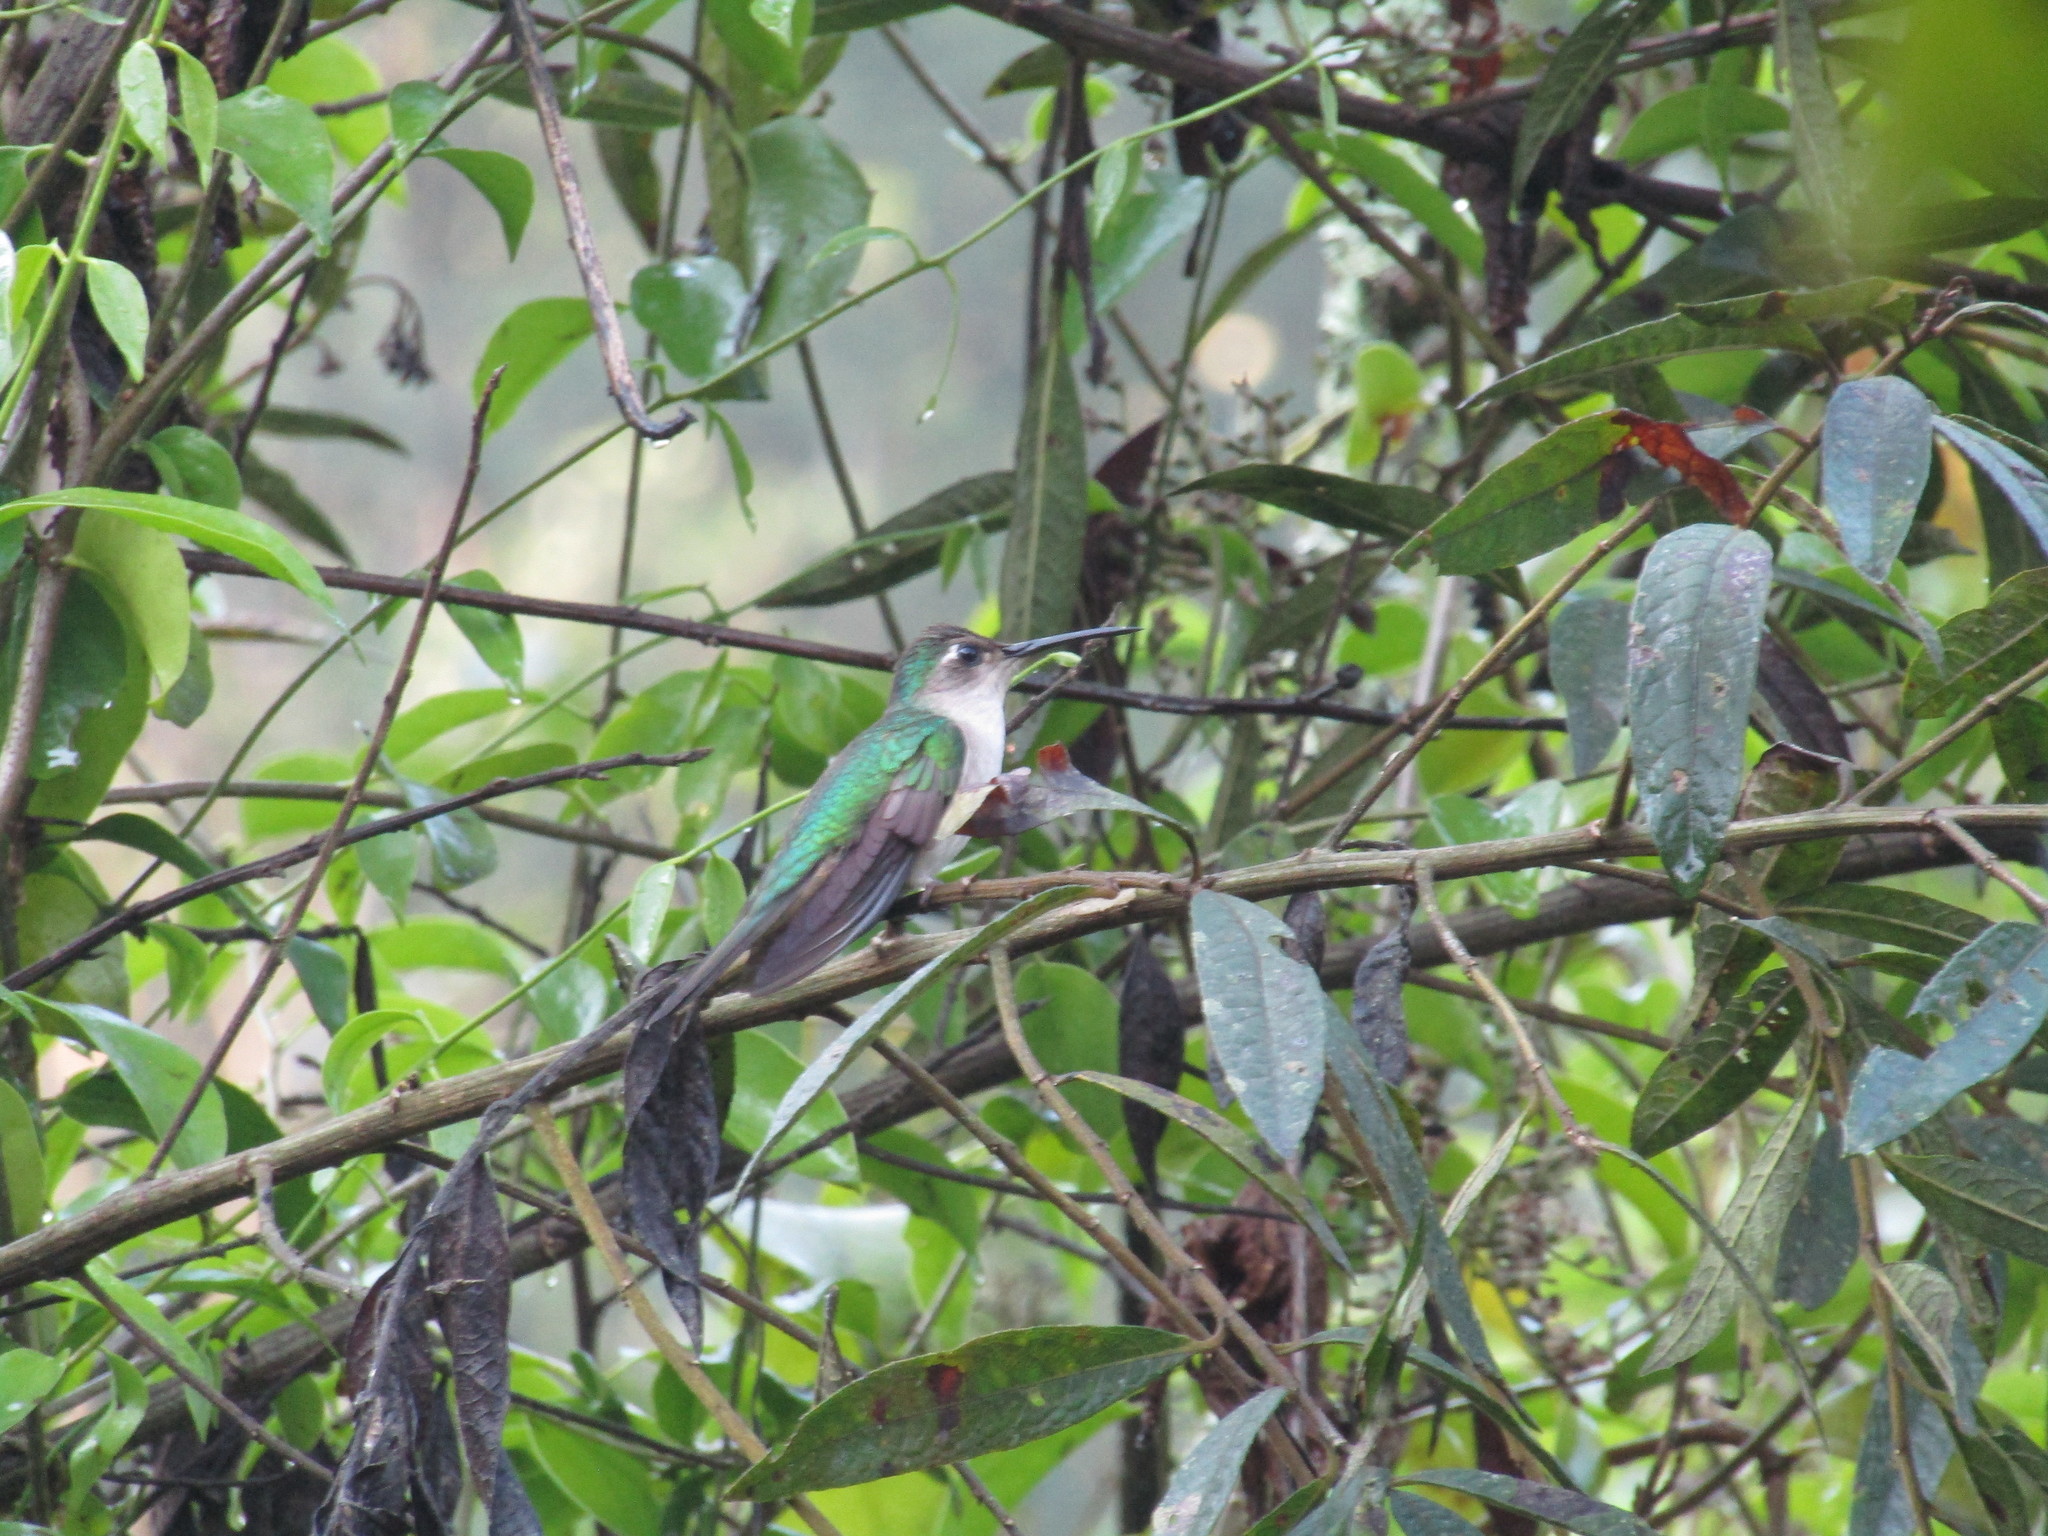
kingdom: Animalia
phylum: Chordata
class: Aves
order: Apodiformes
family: Trochilidae
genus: Pampa
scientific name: Pampa curvipennis
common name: Curve-winged sabrewing
